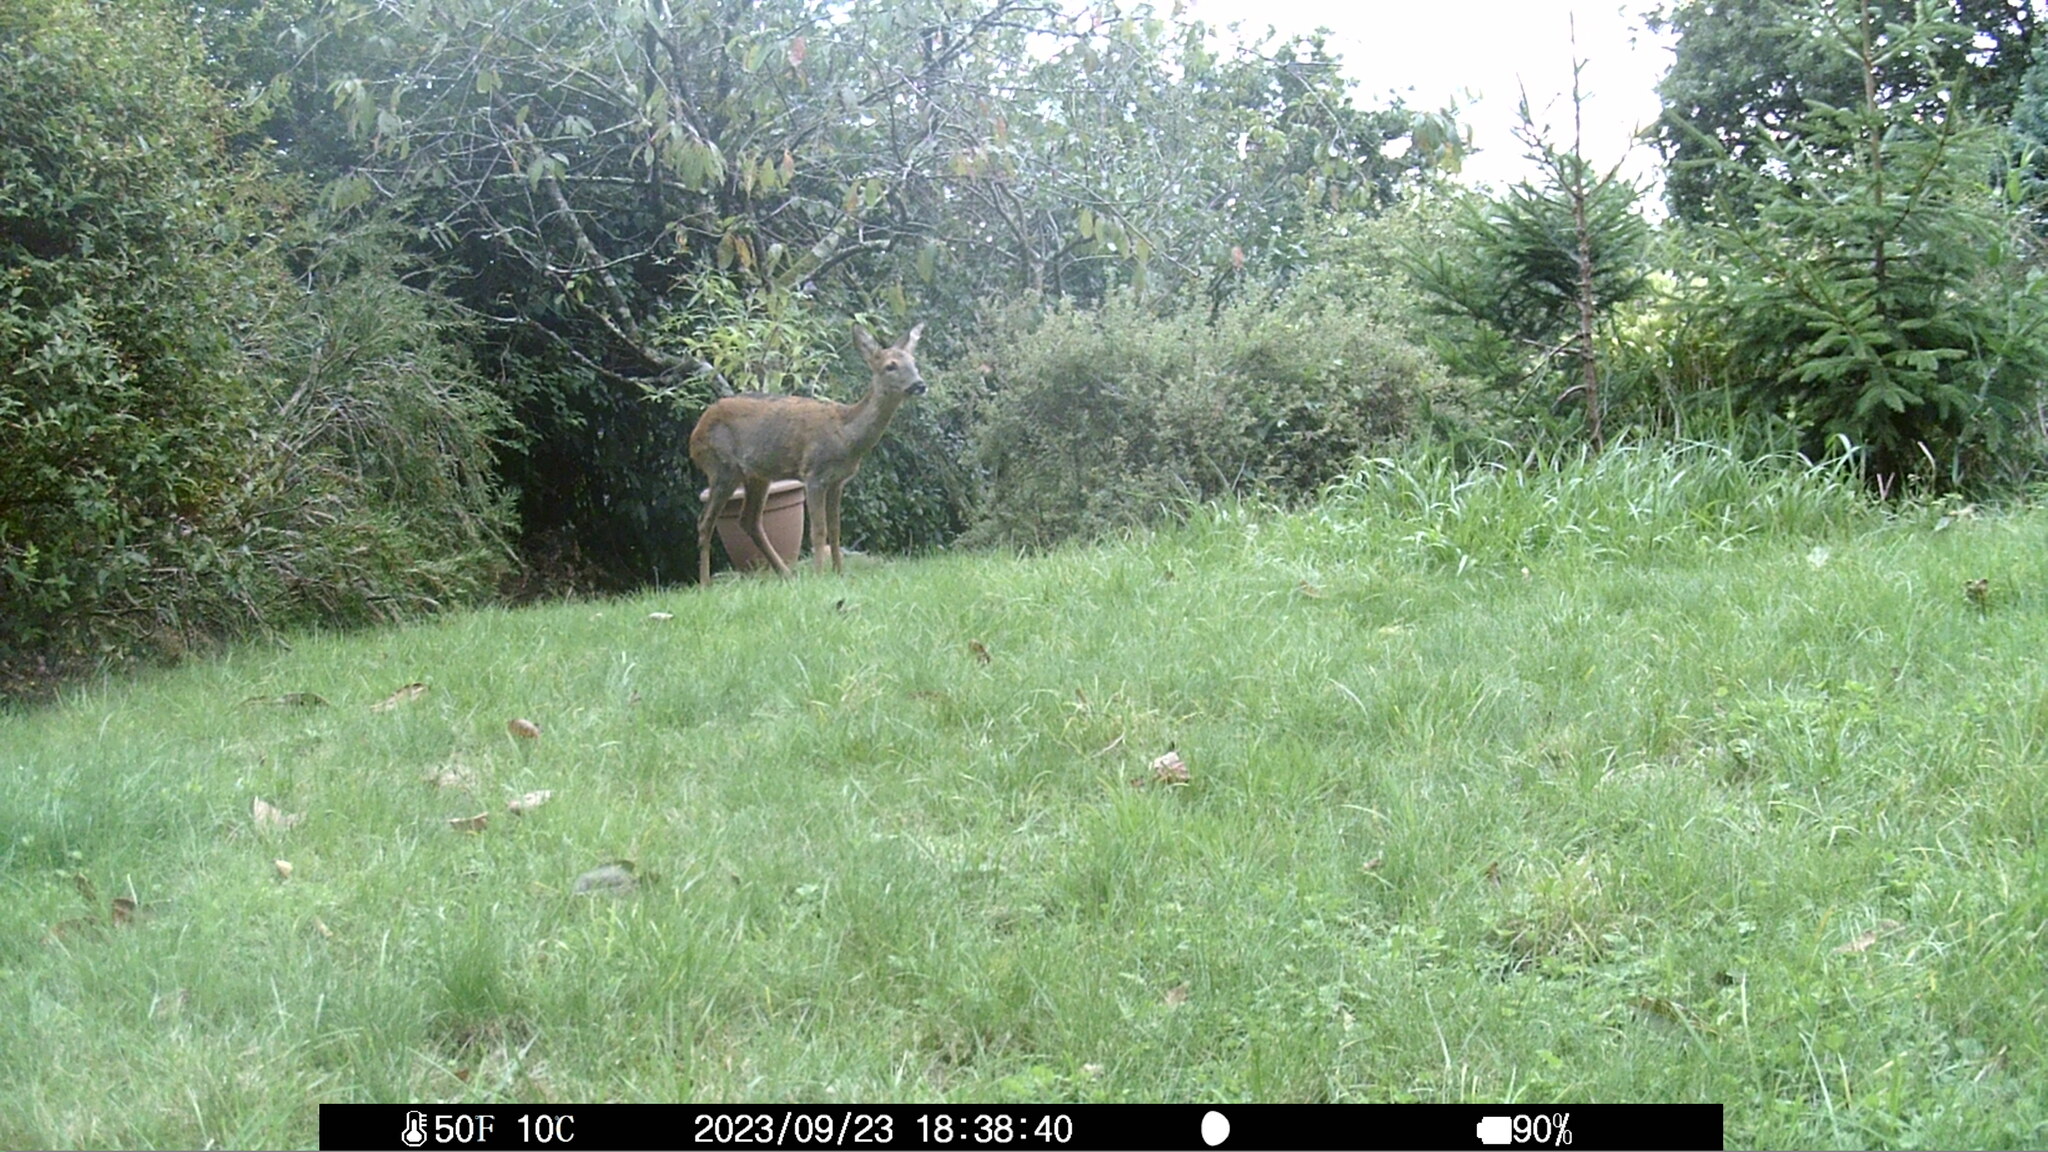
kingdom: Animalia
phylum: Chordata
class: Mammalia
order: Artiodactyla
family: Cervidae
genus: Capreolus
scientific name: Capreolus capreolus
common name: Western roe deer
